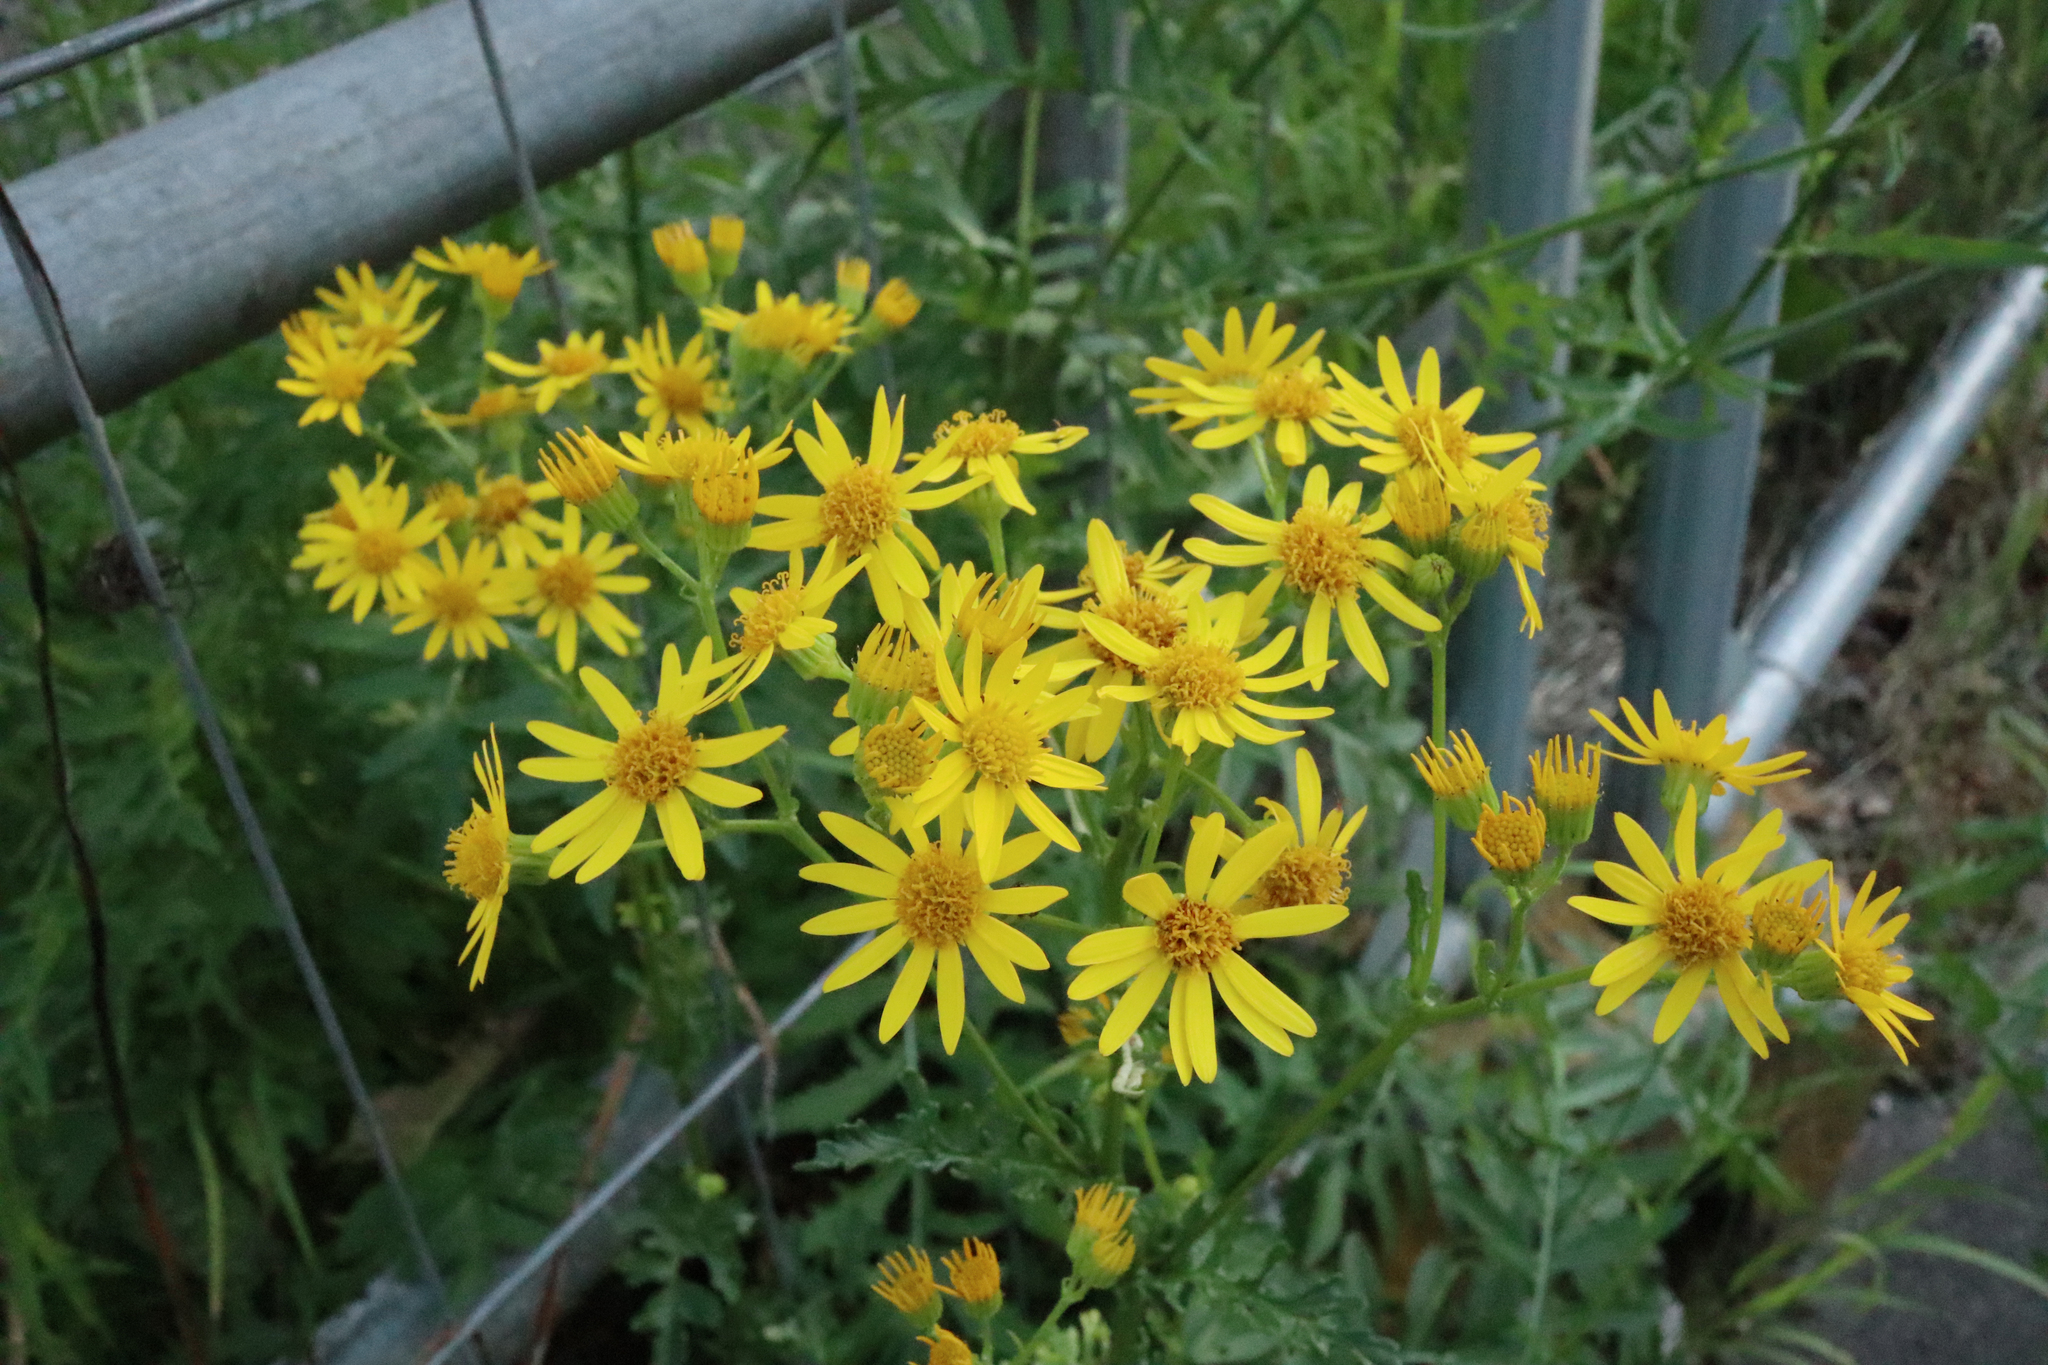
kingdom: Plantae
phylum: Tracheophyta
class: Magnoliopsida
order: Asterales
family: Asteraceae
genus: Jacobaea
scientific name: Jacobaea vulgaris
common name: Stinking willie
